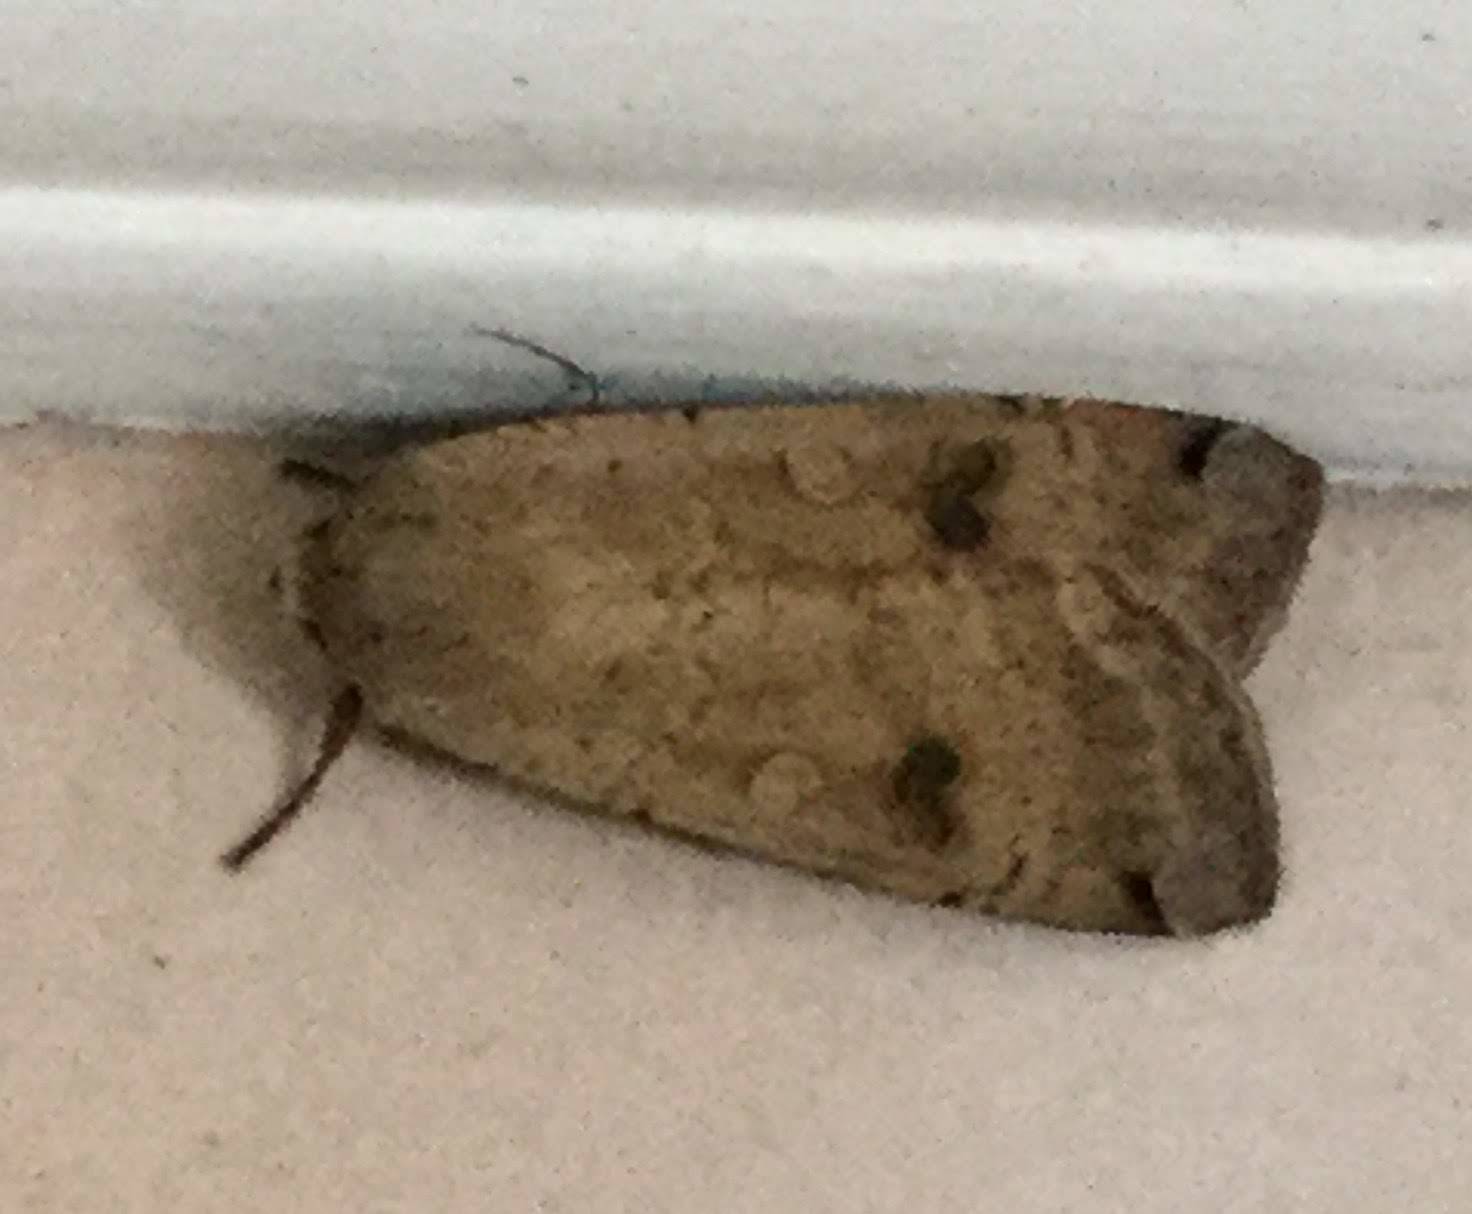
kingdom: Animalia
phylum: Arthropoda
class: Insecta
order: Lepidoptera
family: Noctuidae
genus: Noctua
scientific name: Noctua pronuba
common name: Large yellow underwing
